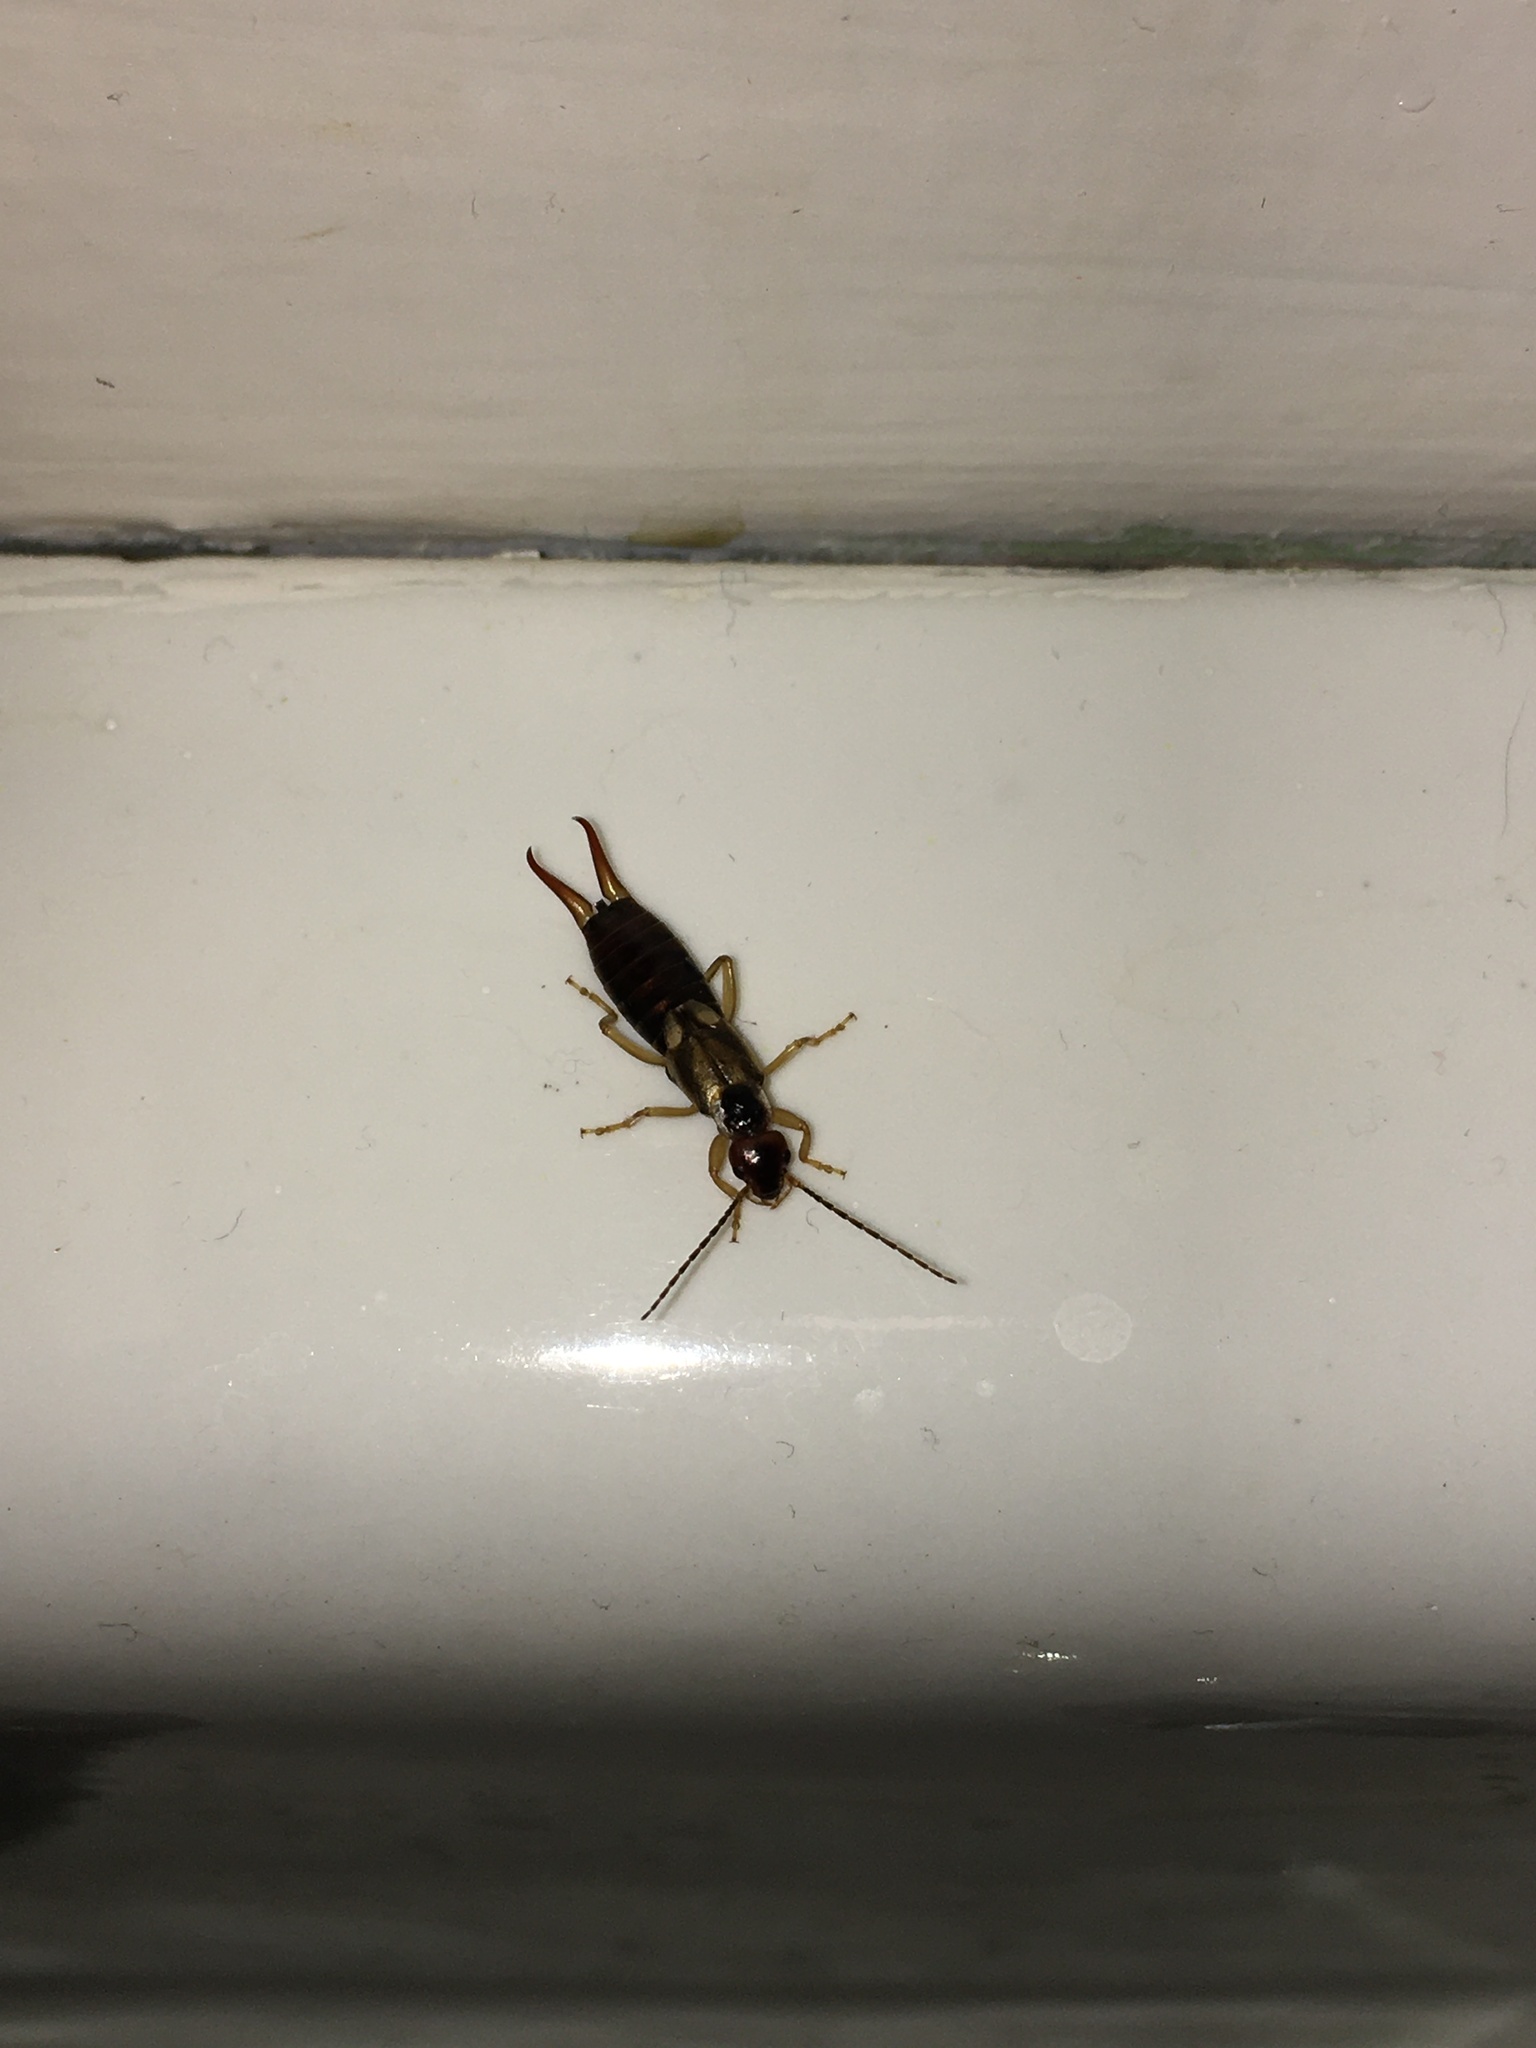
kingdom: Animalia
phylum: Arthropoda
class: Insecta
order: Dermaptera
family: Forficulidae
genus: Forficula
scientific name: Forficula
